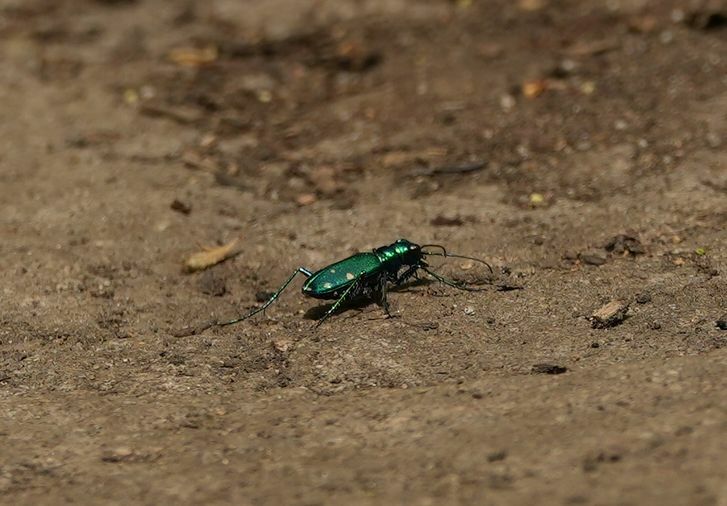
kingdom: Animalia
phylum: Arthropoda
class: Insecta
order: Coleoptera
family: Carabidae
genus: Cicindela
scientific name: Cicindela sexguttata
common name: Six-spotted tiger beetle
